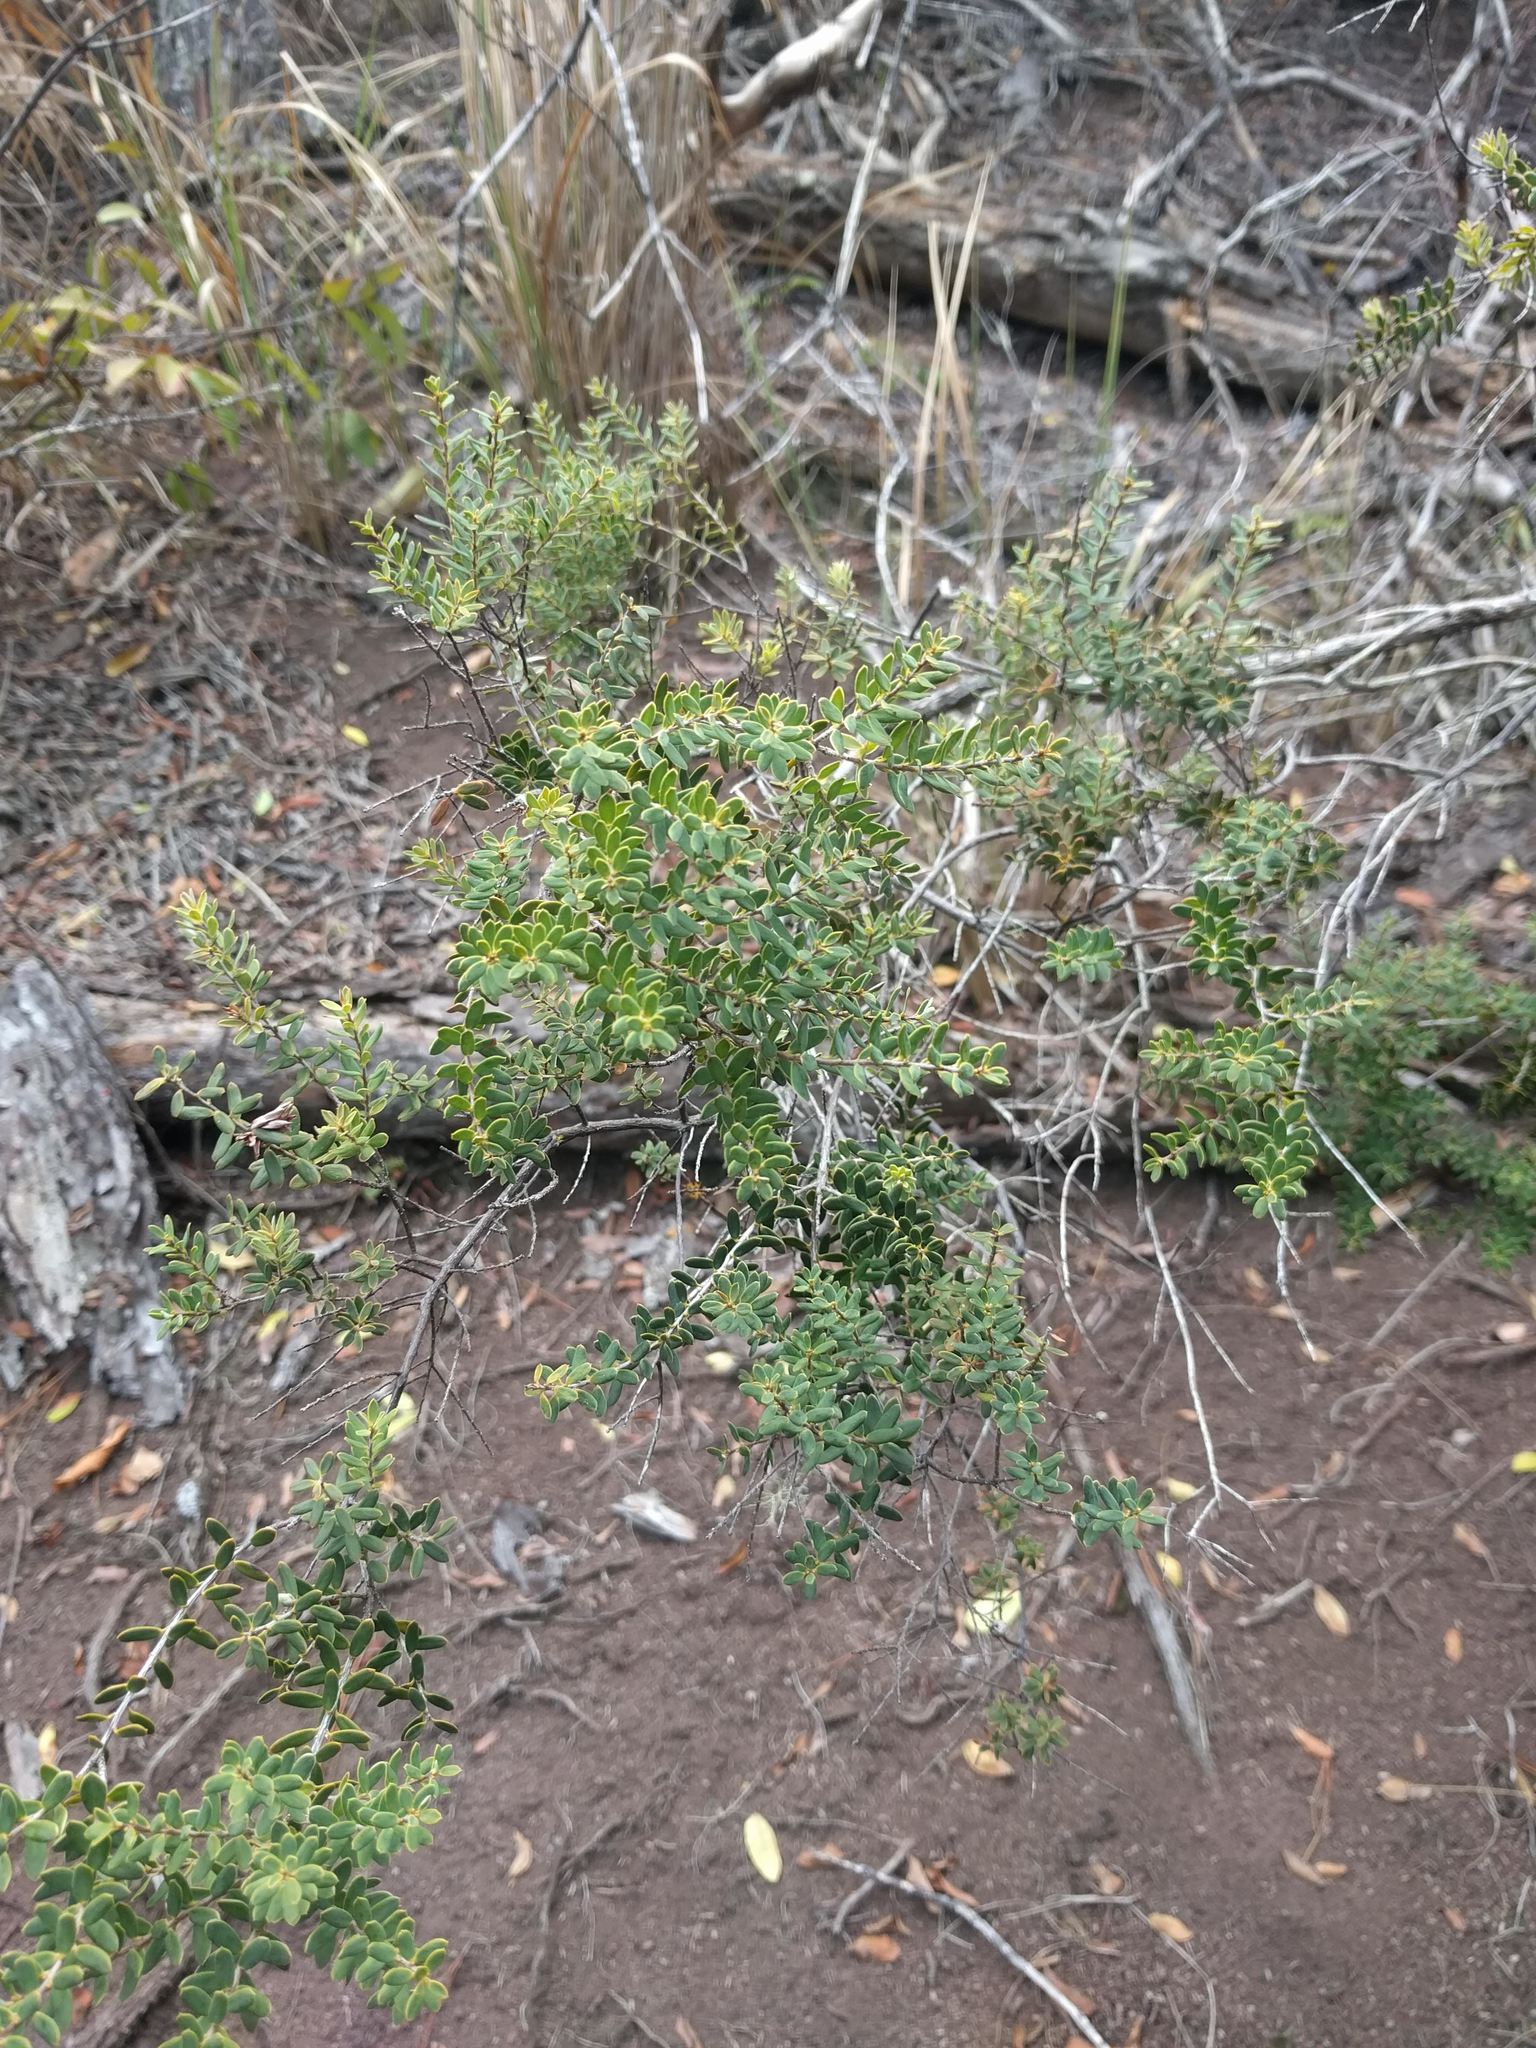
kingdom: Plantae
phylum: Tracheophyta
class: Magnoliopsida
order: Ericales
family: Ericaceae
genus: Leptecophylla
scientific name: Leptecophylla tameiameiae
